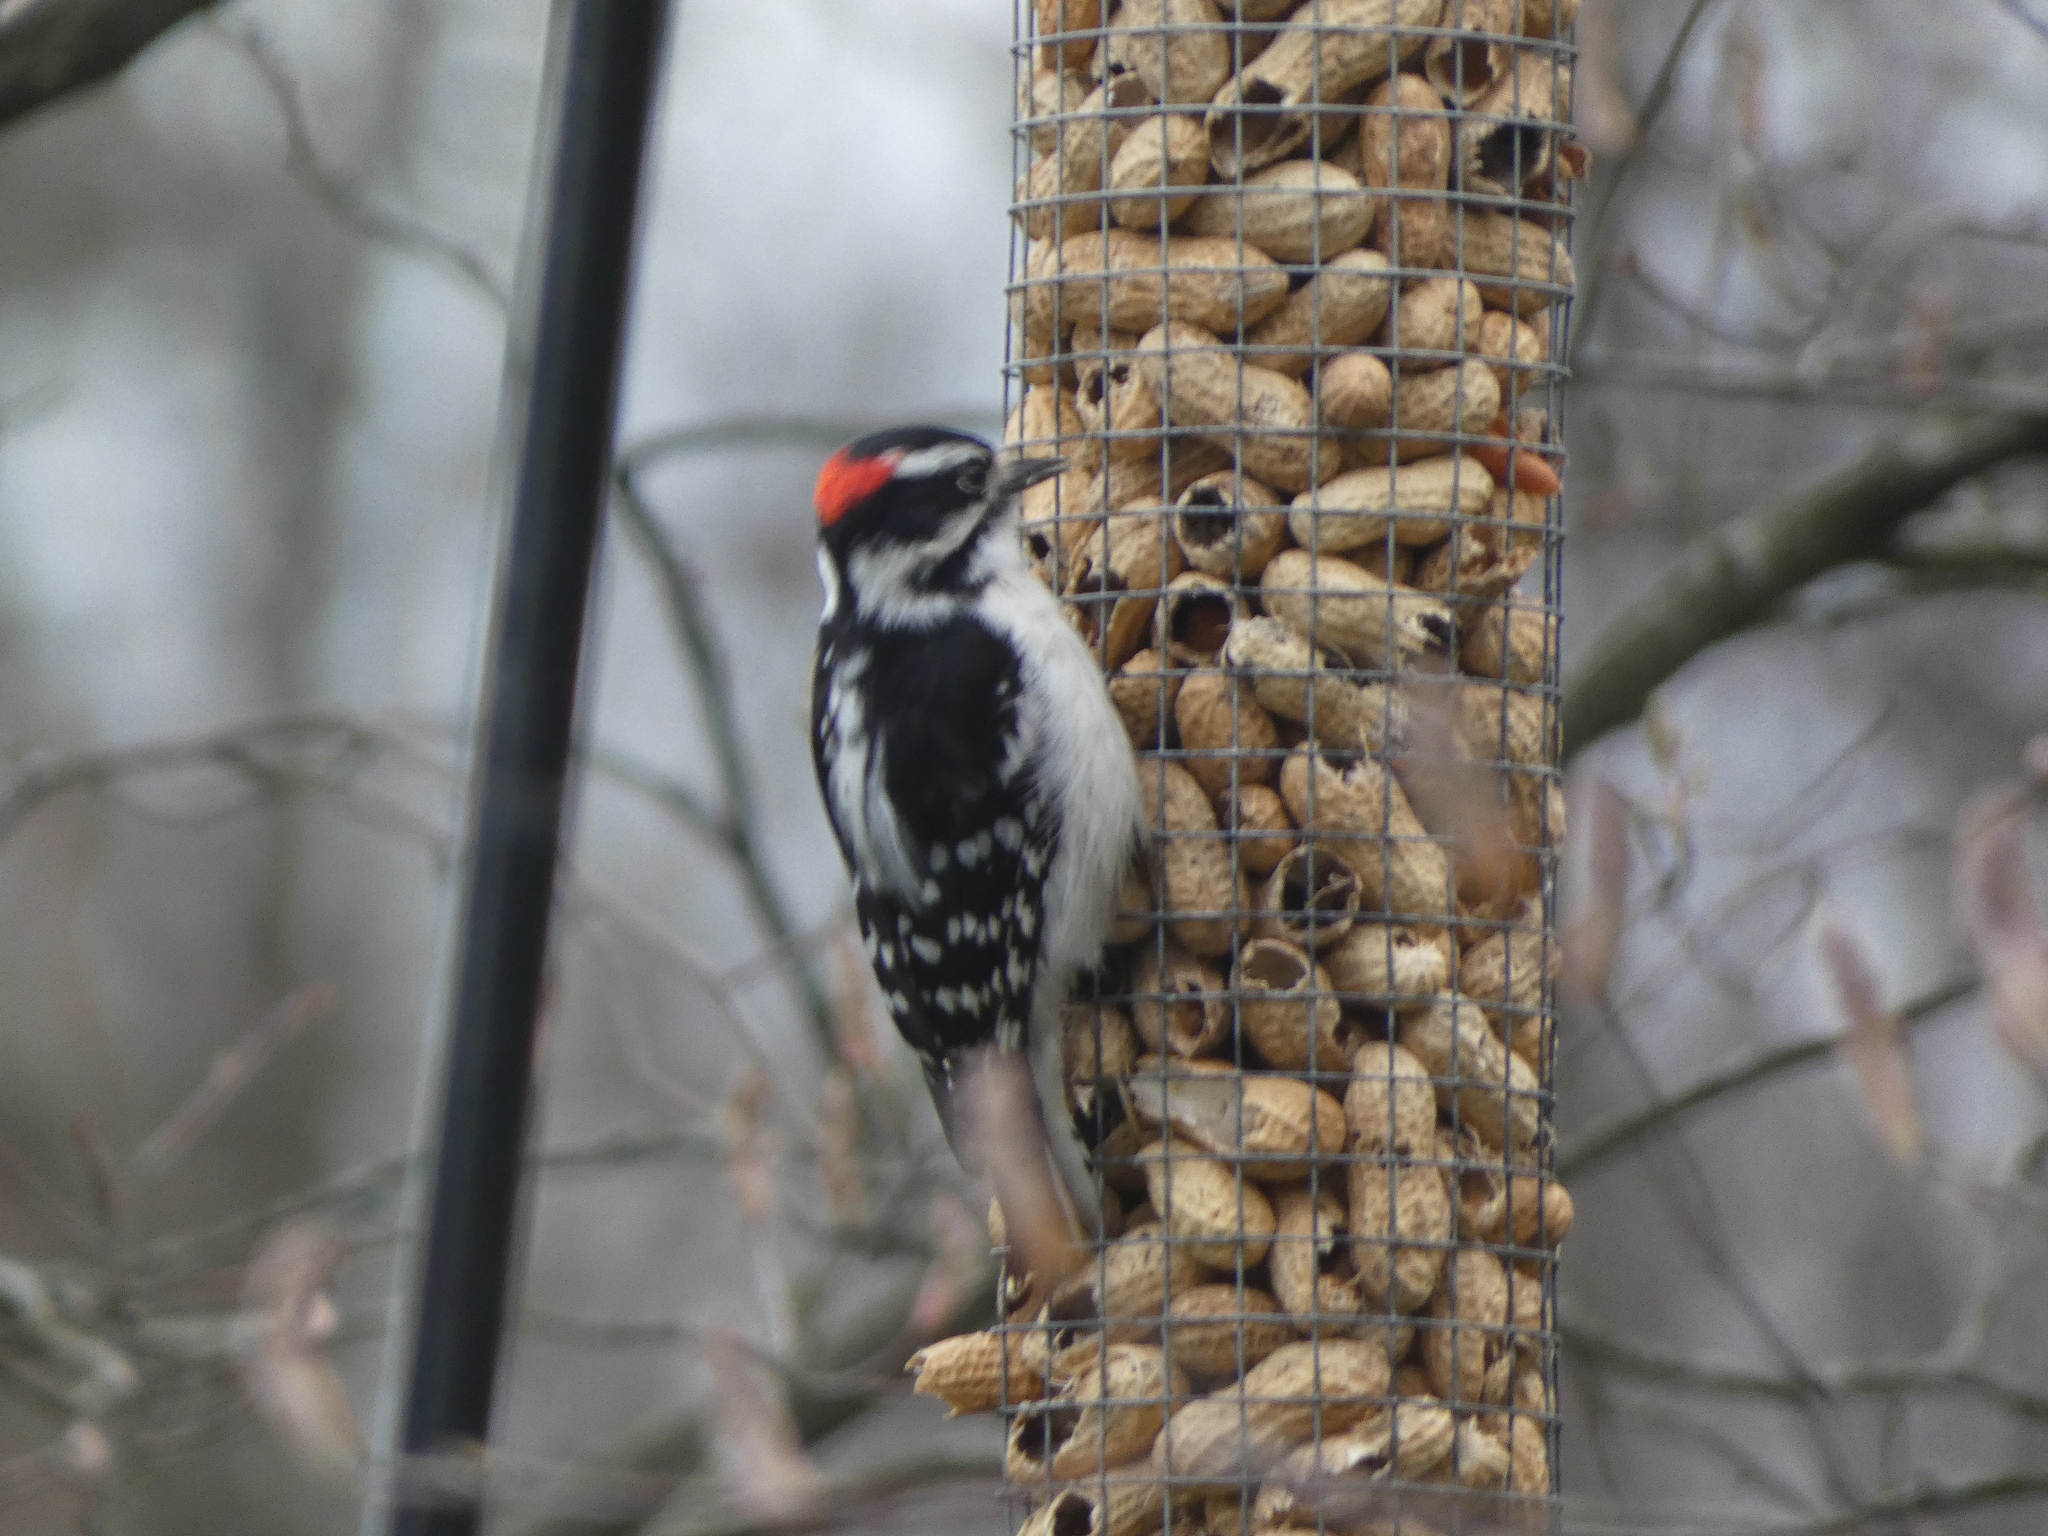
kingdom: Animalia
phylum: Chordata
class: Aves
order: Piciformes
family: Picidae
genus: Dryobates
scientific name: Dryobates pubescens
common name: Downy woodpecker
